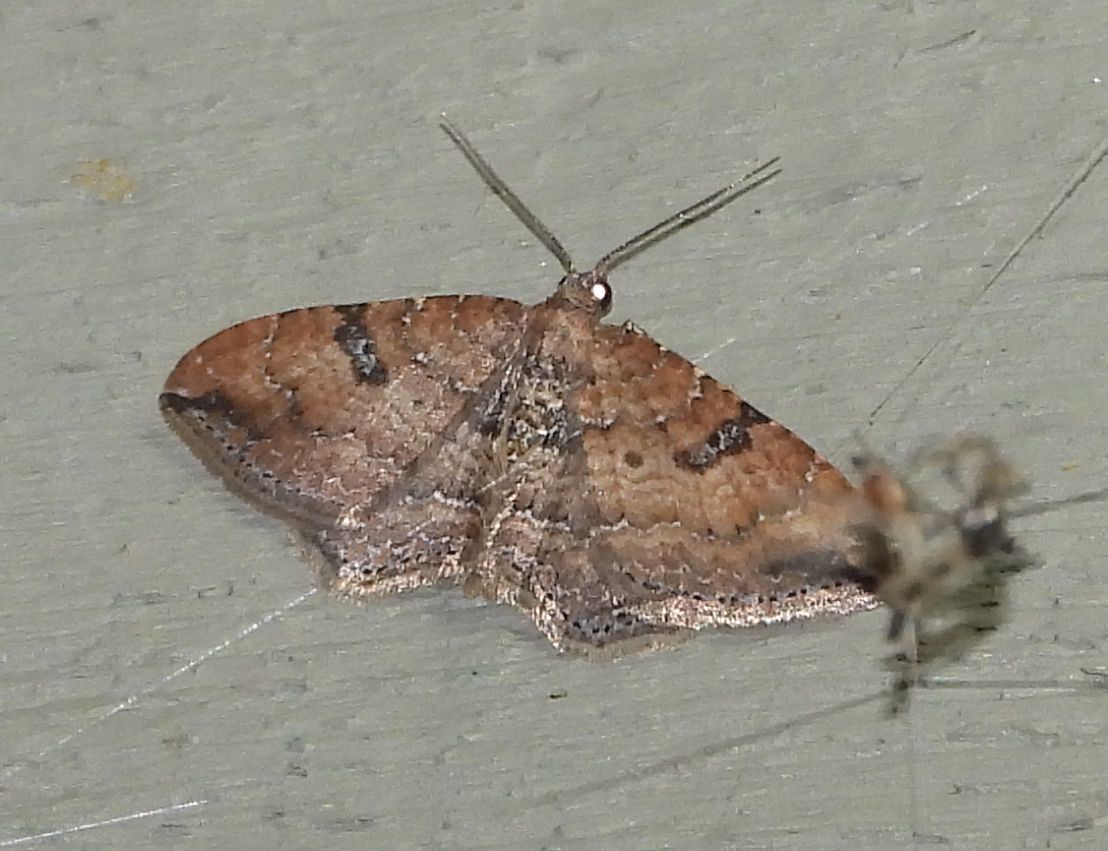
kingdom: Animalia
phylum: Arthropoda
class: Insecta
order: Lepidoptera
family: Geometridae
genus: Orthonama
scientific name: Orthonama obstipata
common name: The gem
